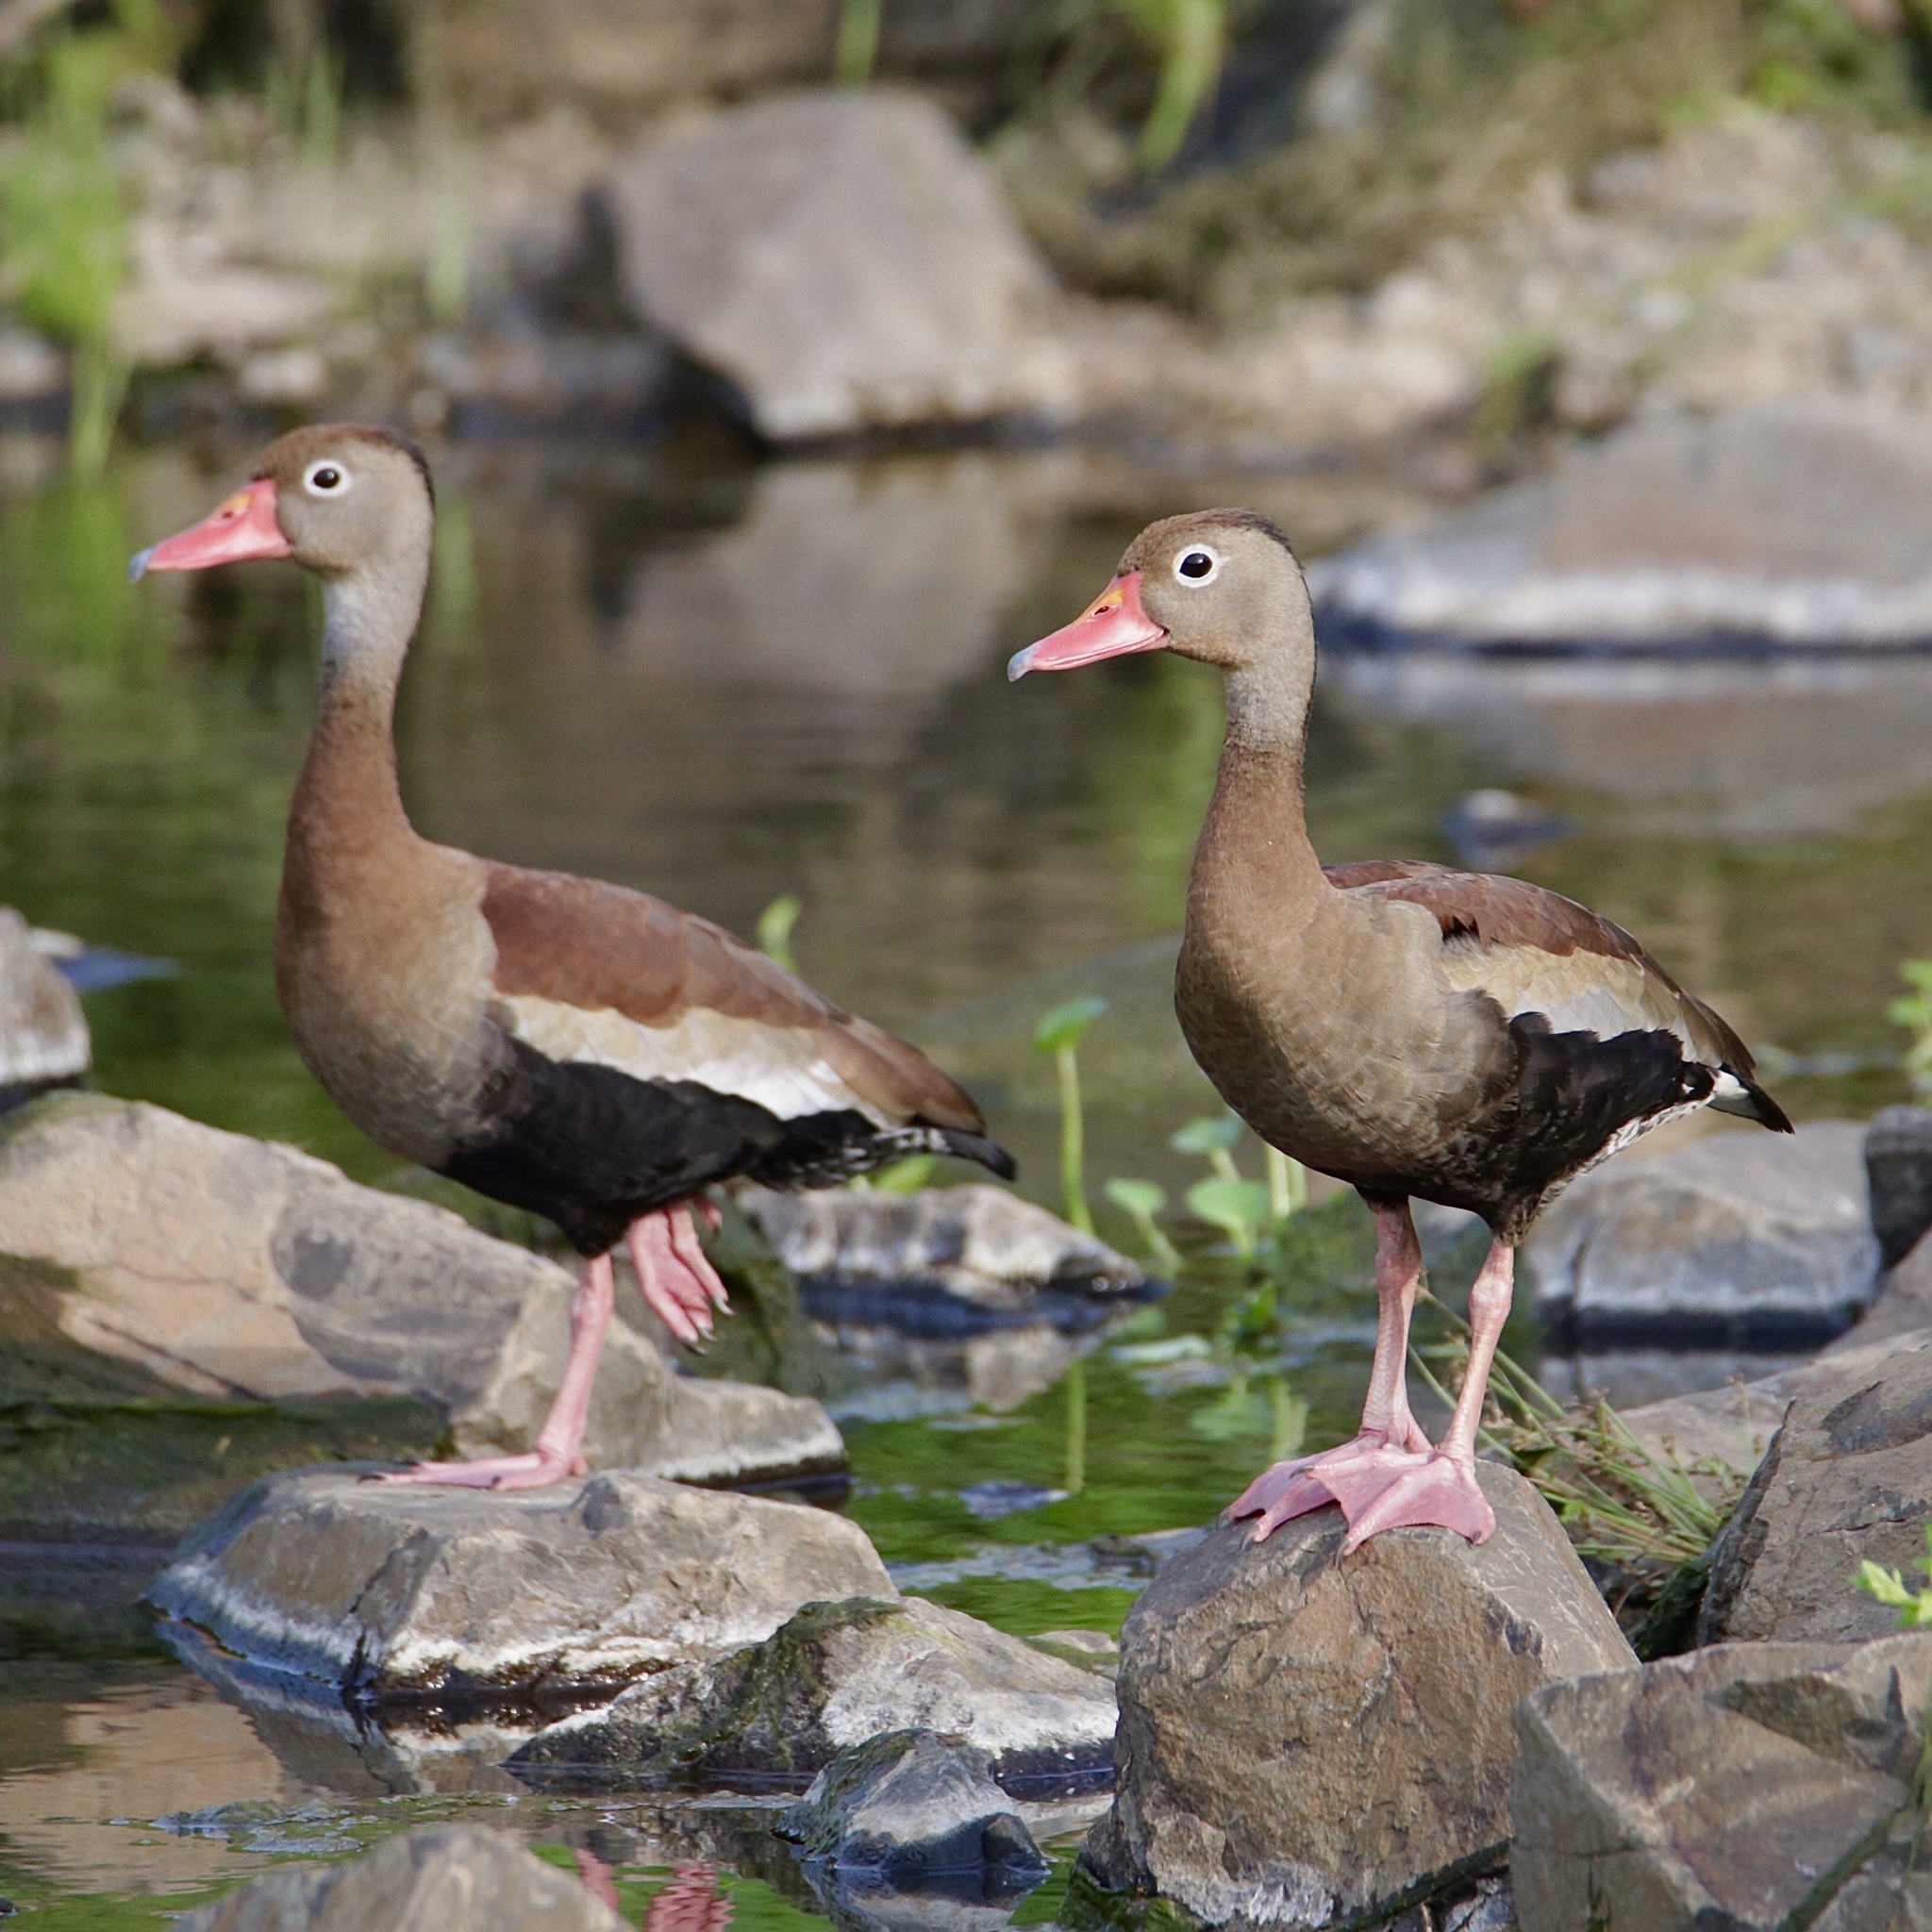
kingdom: Animalia
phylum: Chordata
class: Aves
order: Anseriformes
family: Anatidae
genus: Dendrocygna
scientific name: Dendrocygna autumnalis
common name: Black-bellied whistling duck
